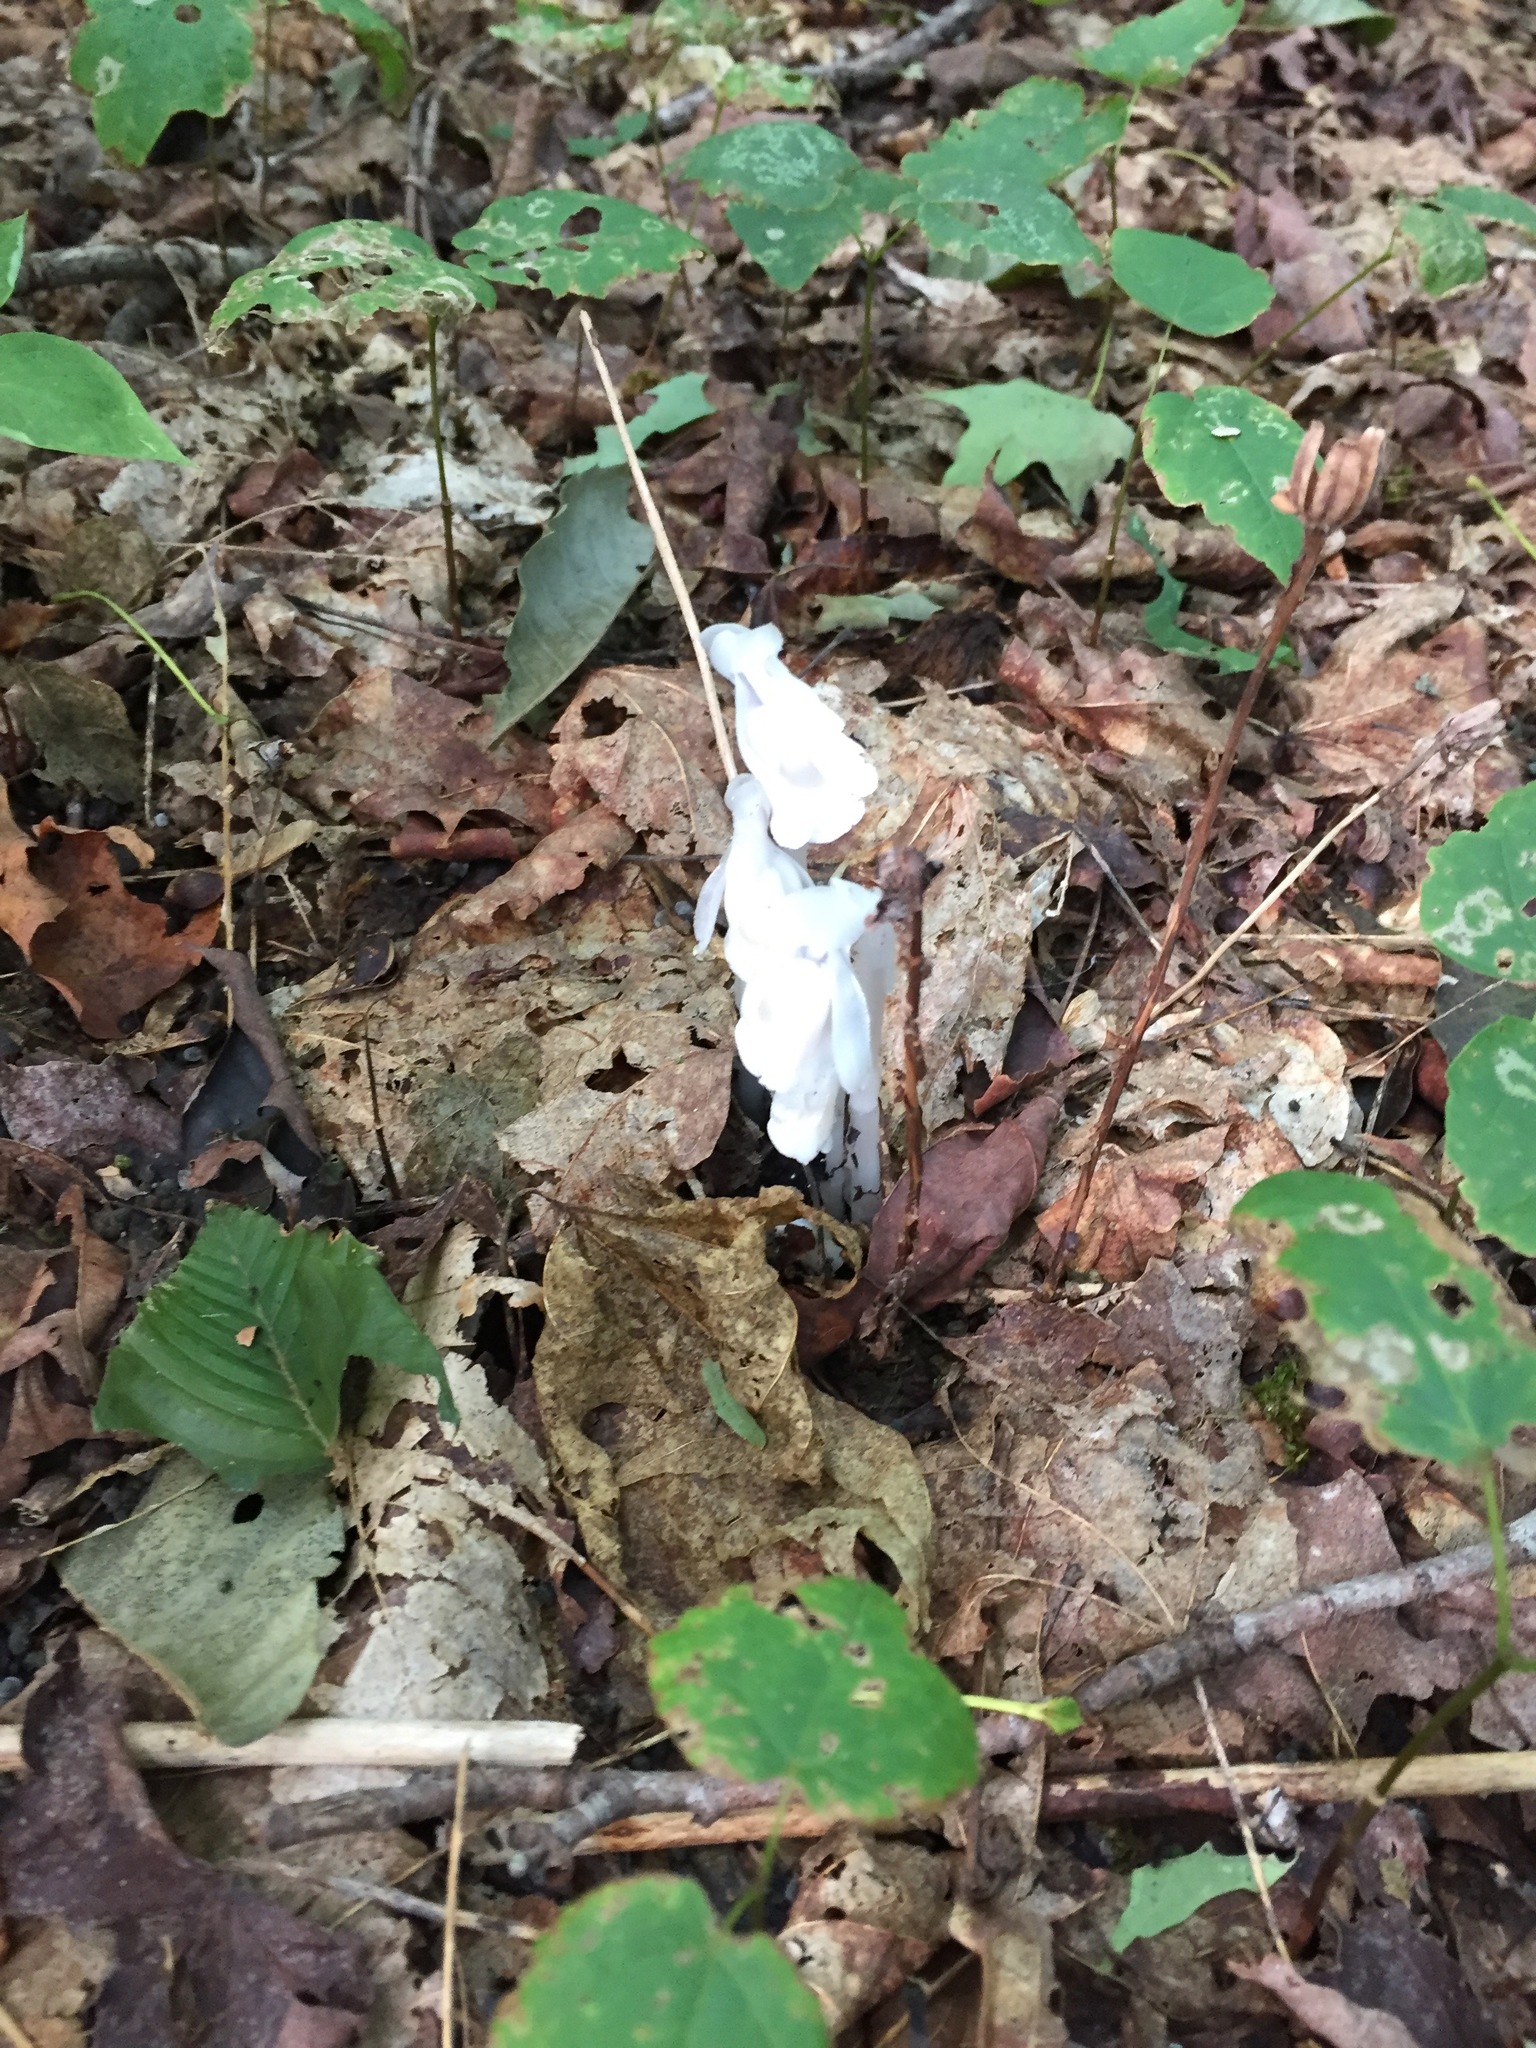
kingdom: Plantae
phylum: Tracheophyta
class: Magnoliopsida
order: Ericales
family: Ericaceae
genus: Monotropa
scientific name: Monotropa uniflora
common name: Convulsion root
